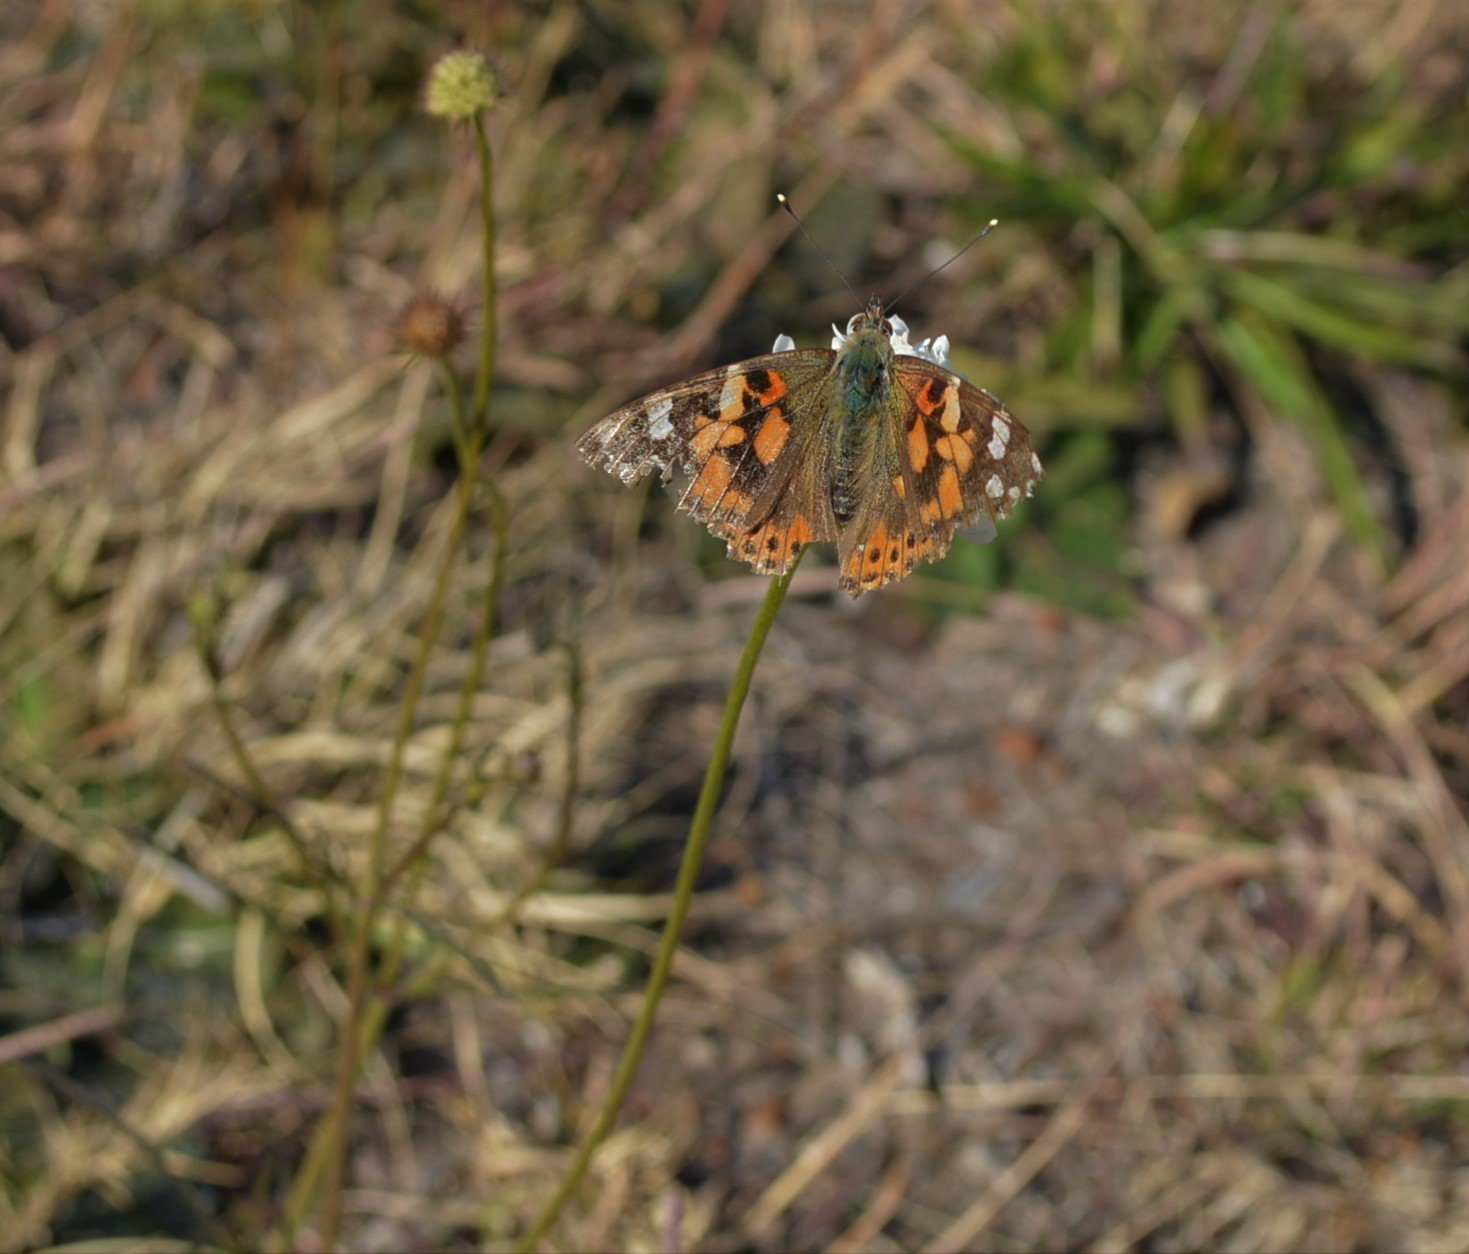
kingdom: Animalia
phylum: Arthropoda
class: Insecta
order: Lepidoptera
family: Nymphalidae
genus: Vanessa
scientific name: Vanessa cardui
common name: Painted lady
